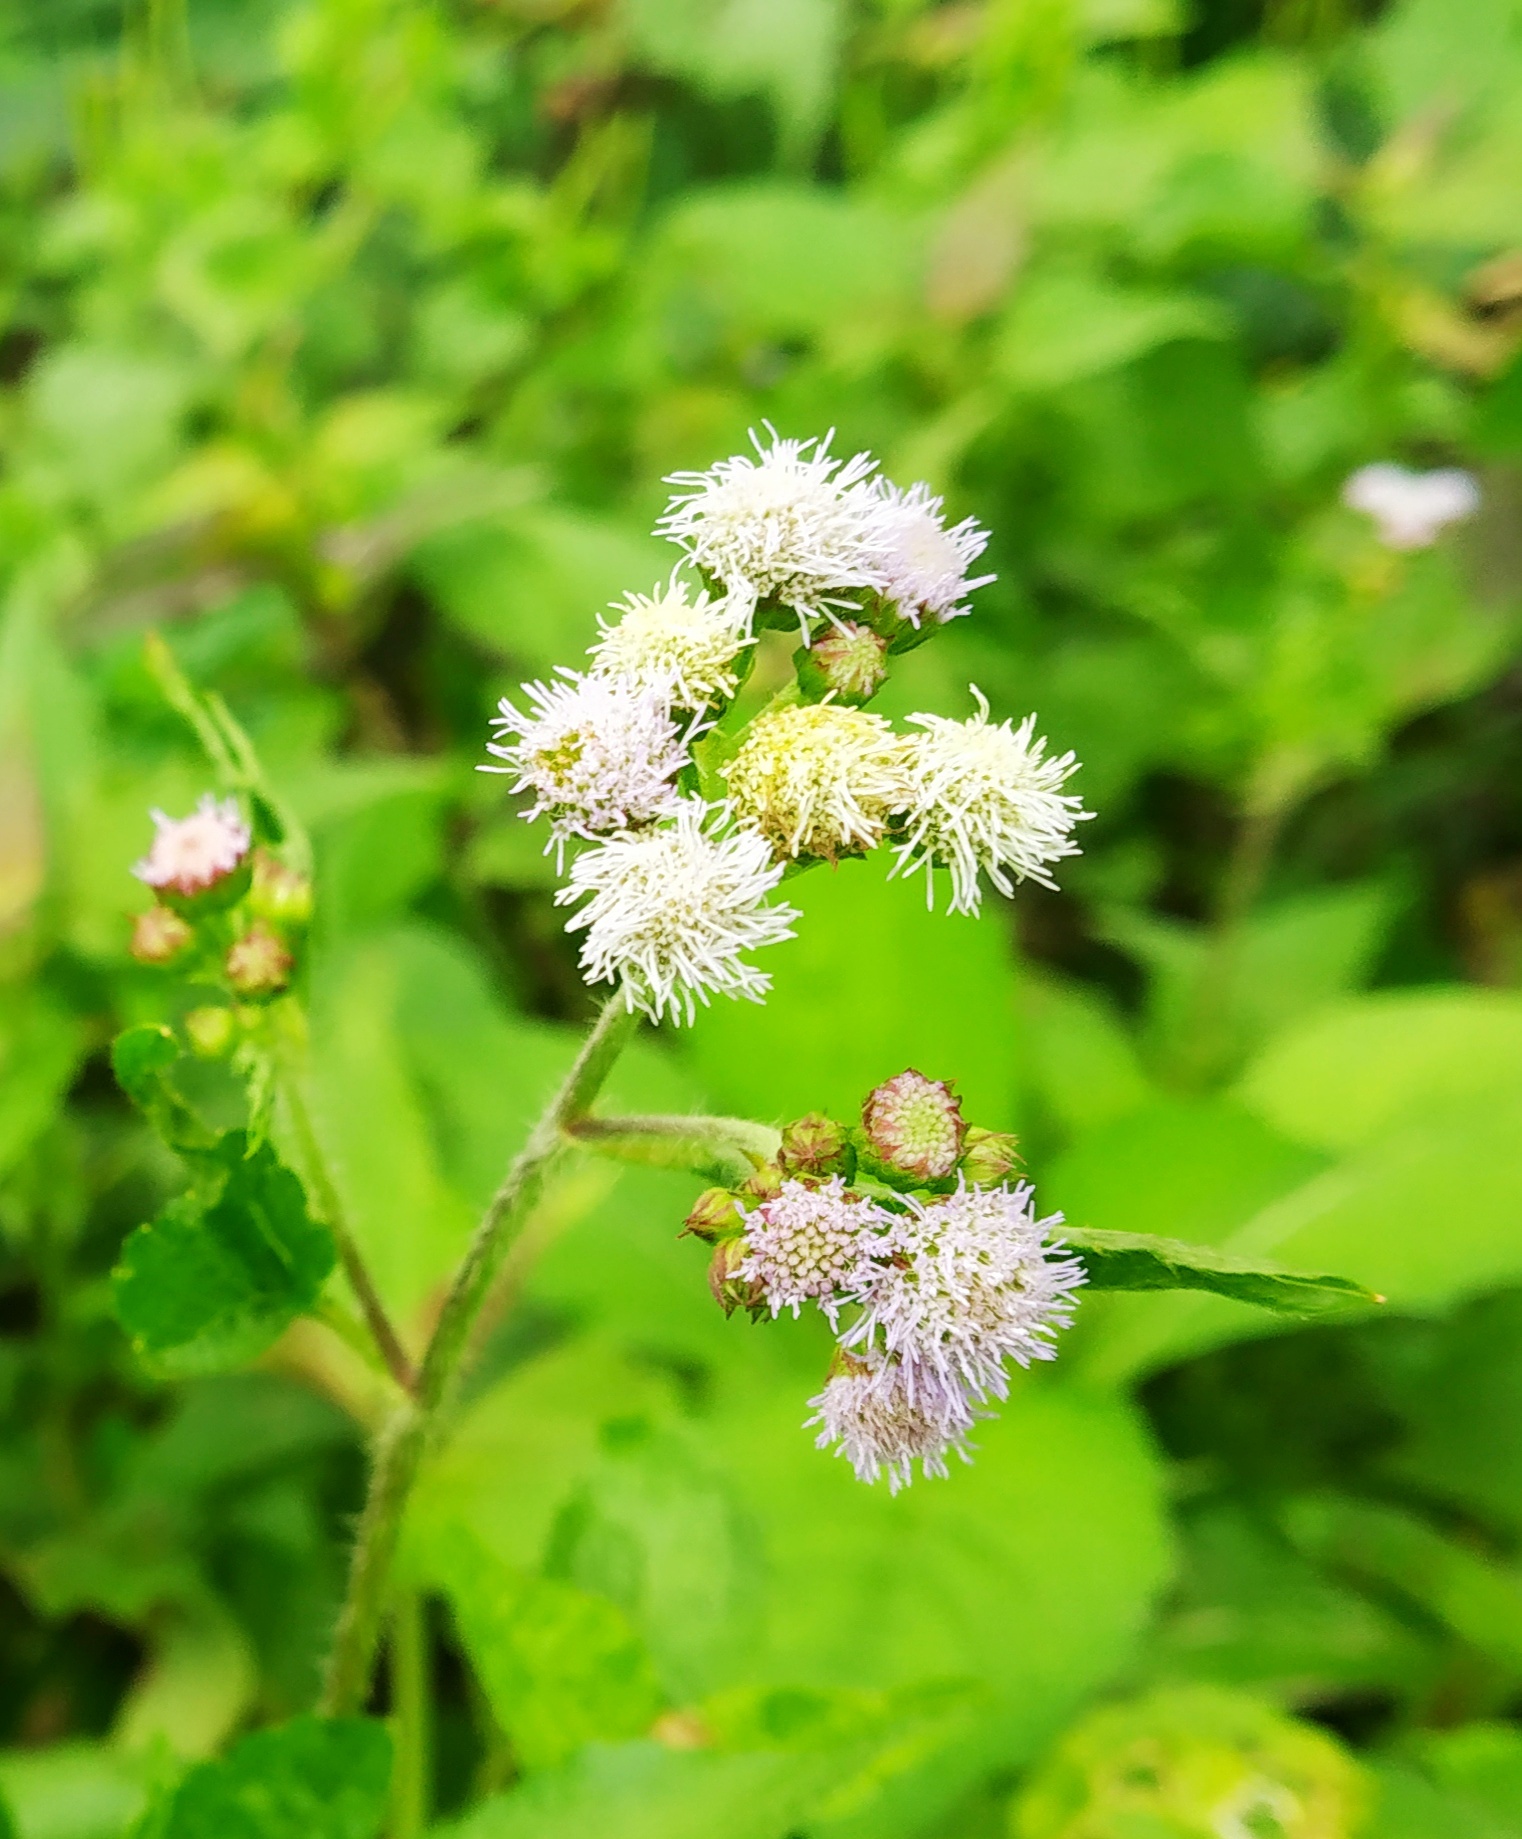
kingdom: Plantae
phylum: Tracheophyta
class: Magnoliopsida
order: Asterales
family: Asteraceae
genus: Ageratum
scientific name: Ageratum conyzoides
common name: Tropical whiteweed
